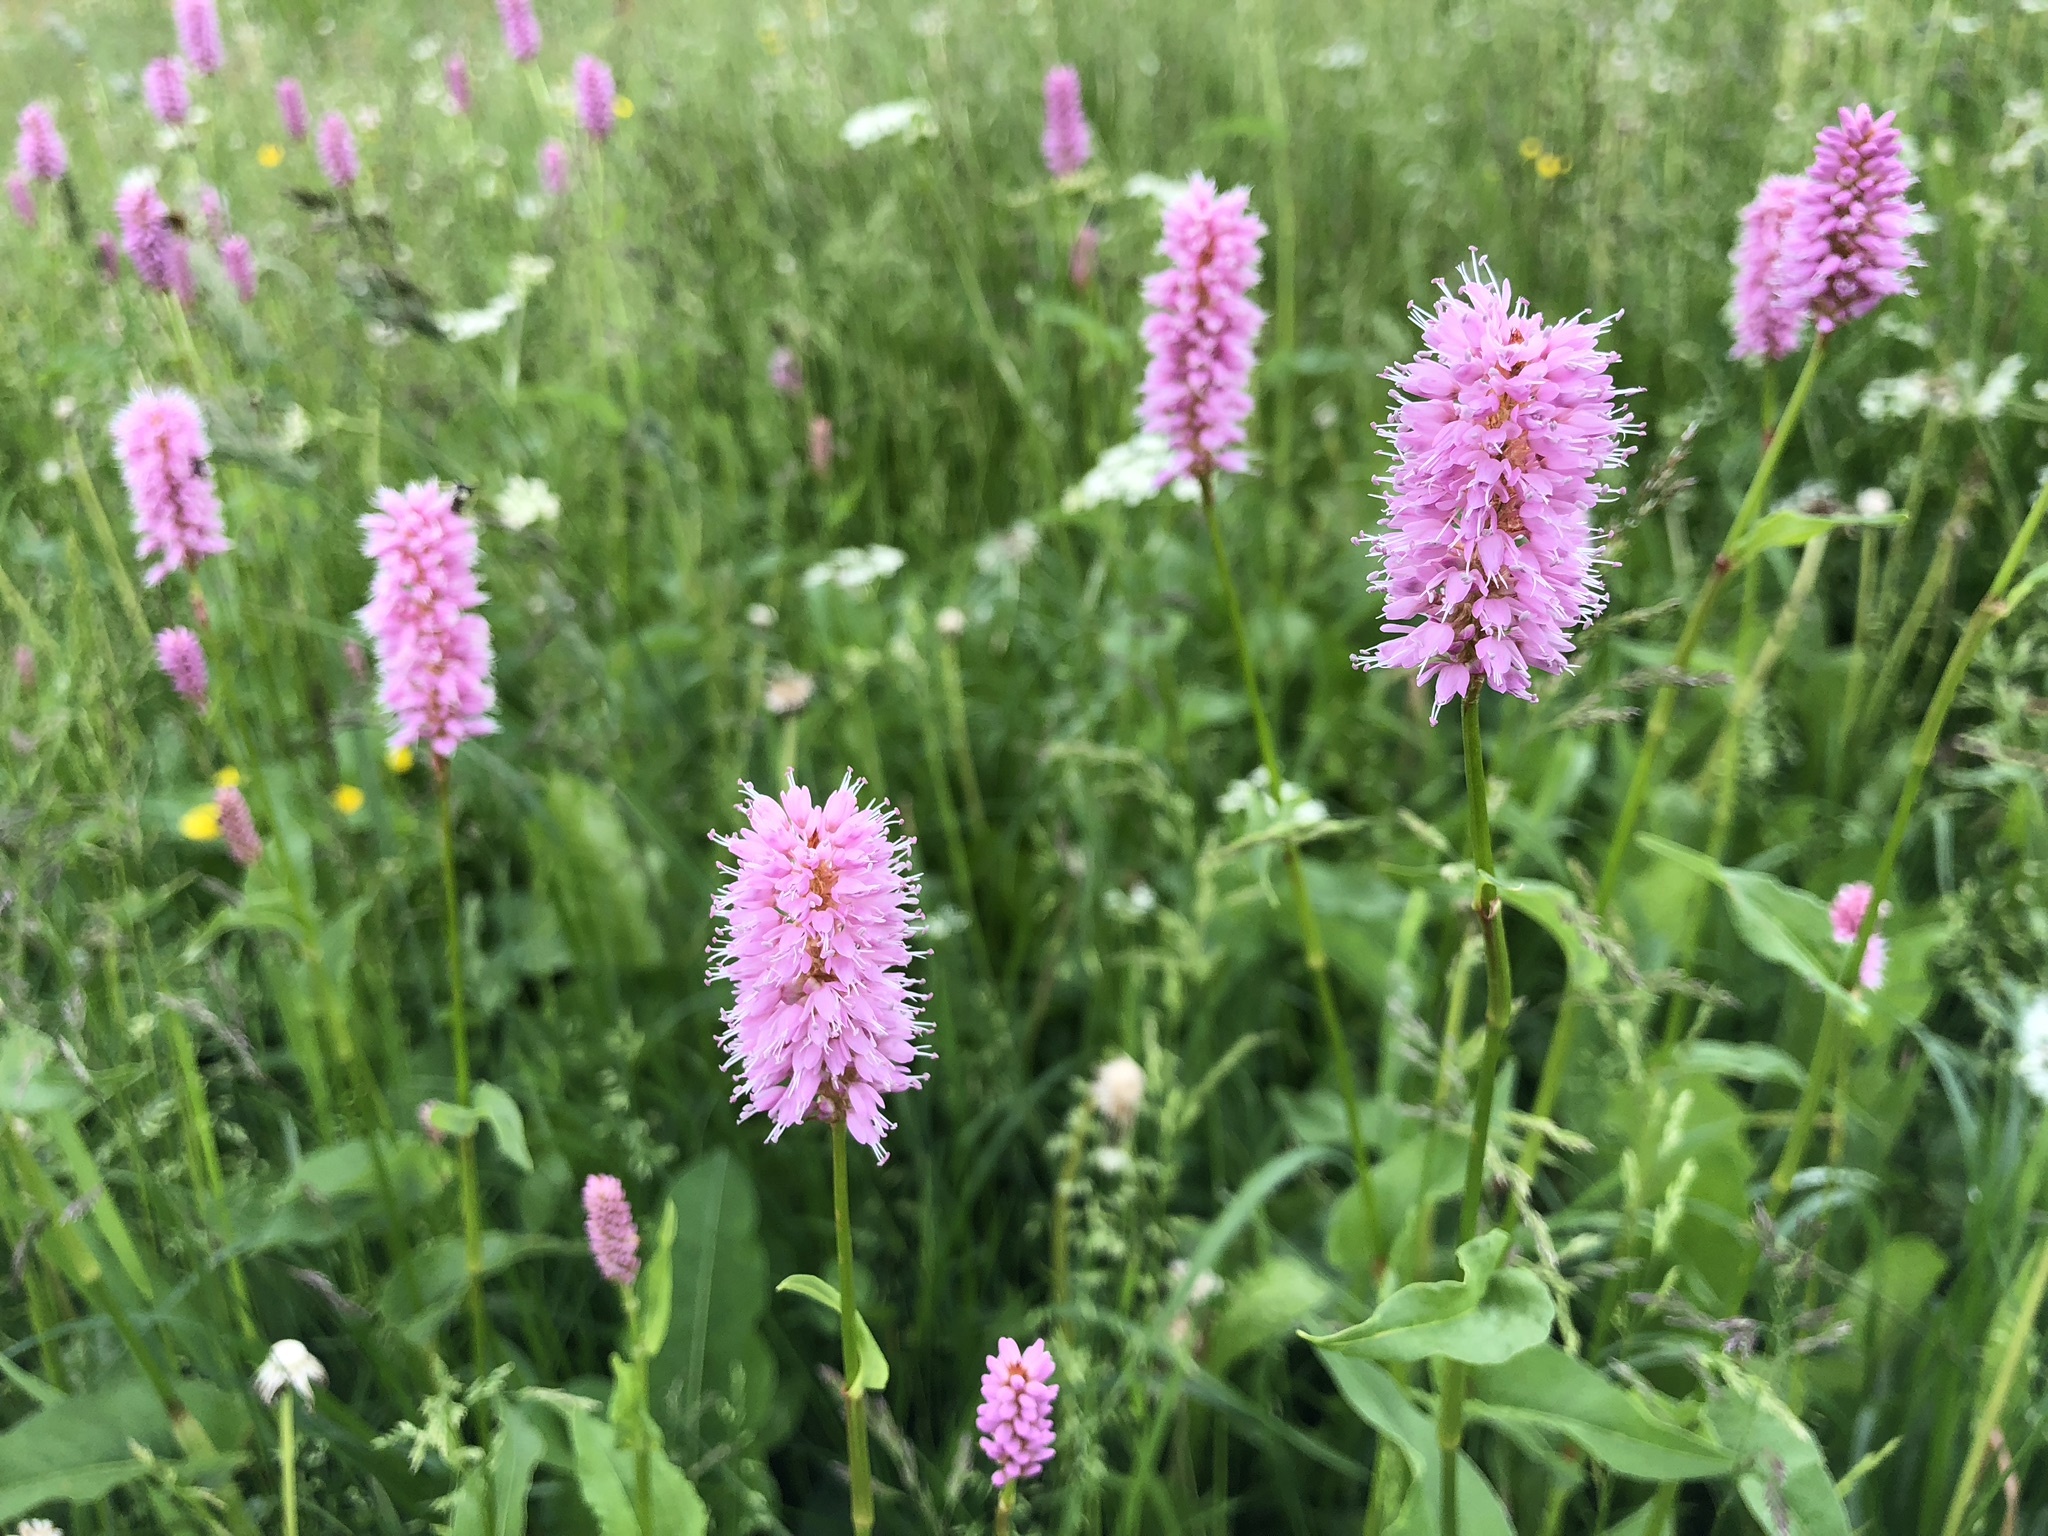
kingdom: Plantae
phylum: Tracheophyta
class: Magnoliopsida
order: Caryophyllales
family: Polygonaceae
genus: Bistorta
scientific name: Bistorta officinalis
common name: Common bistort
